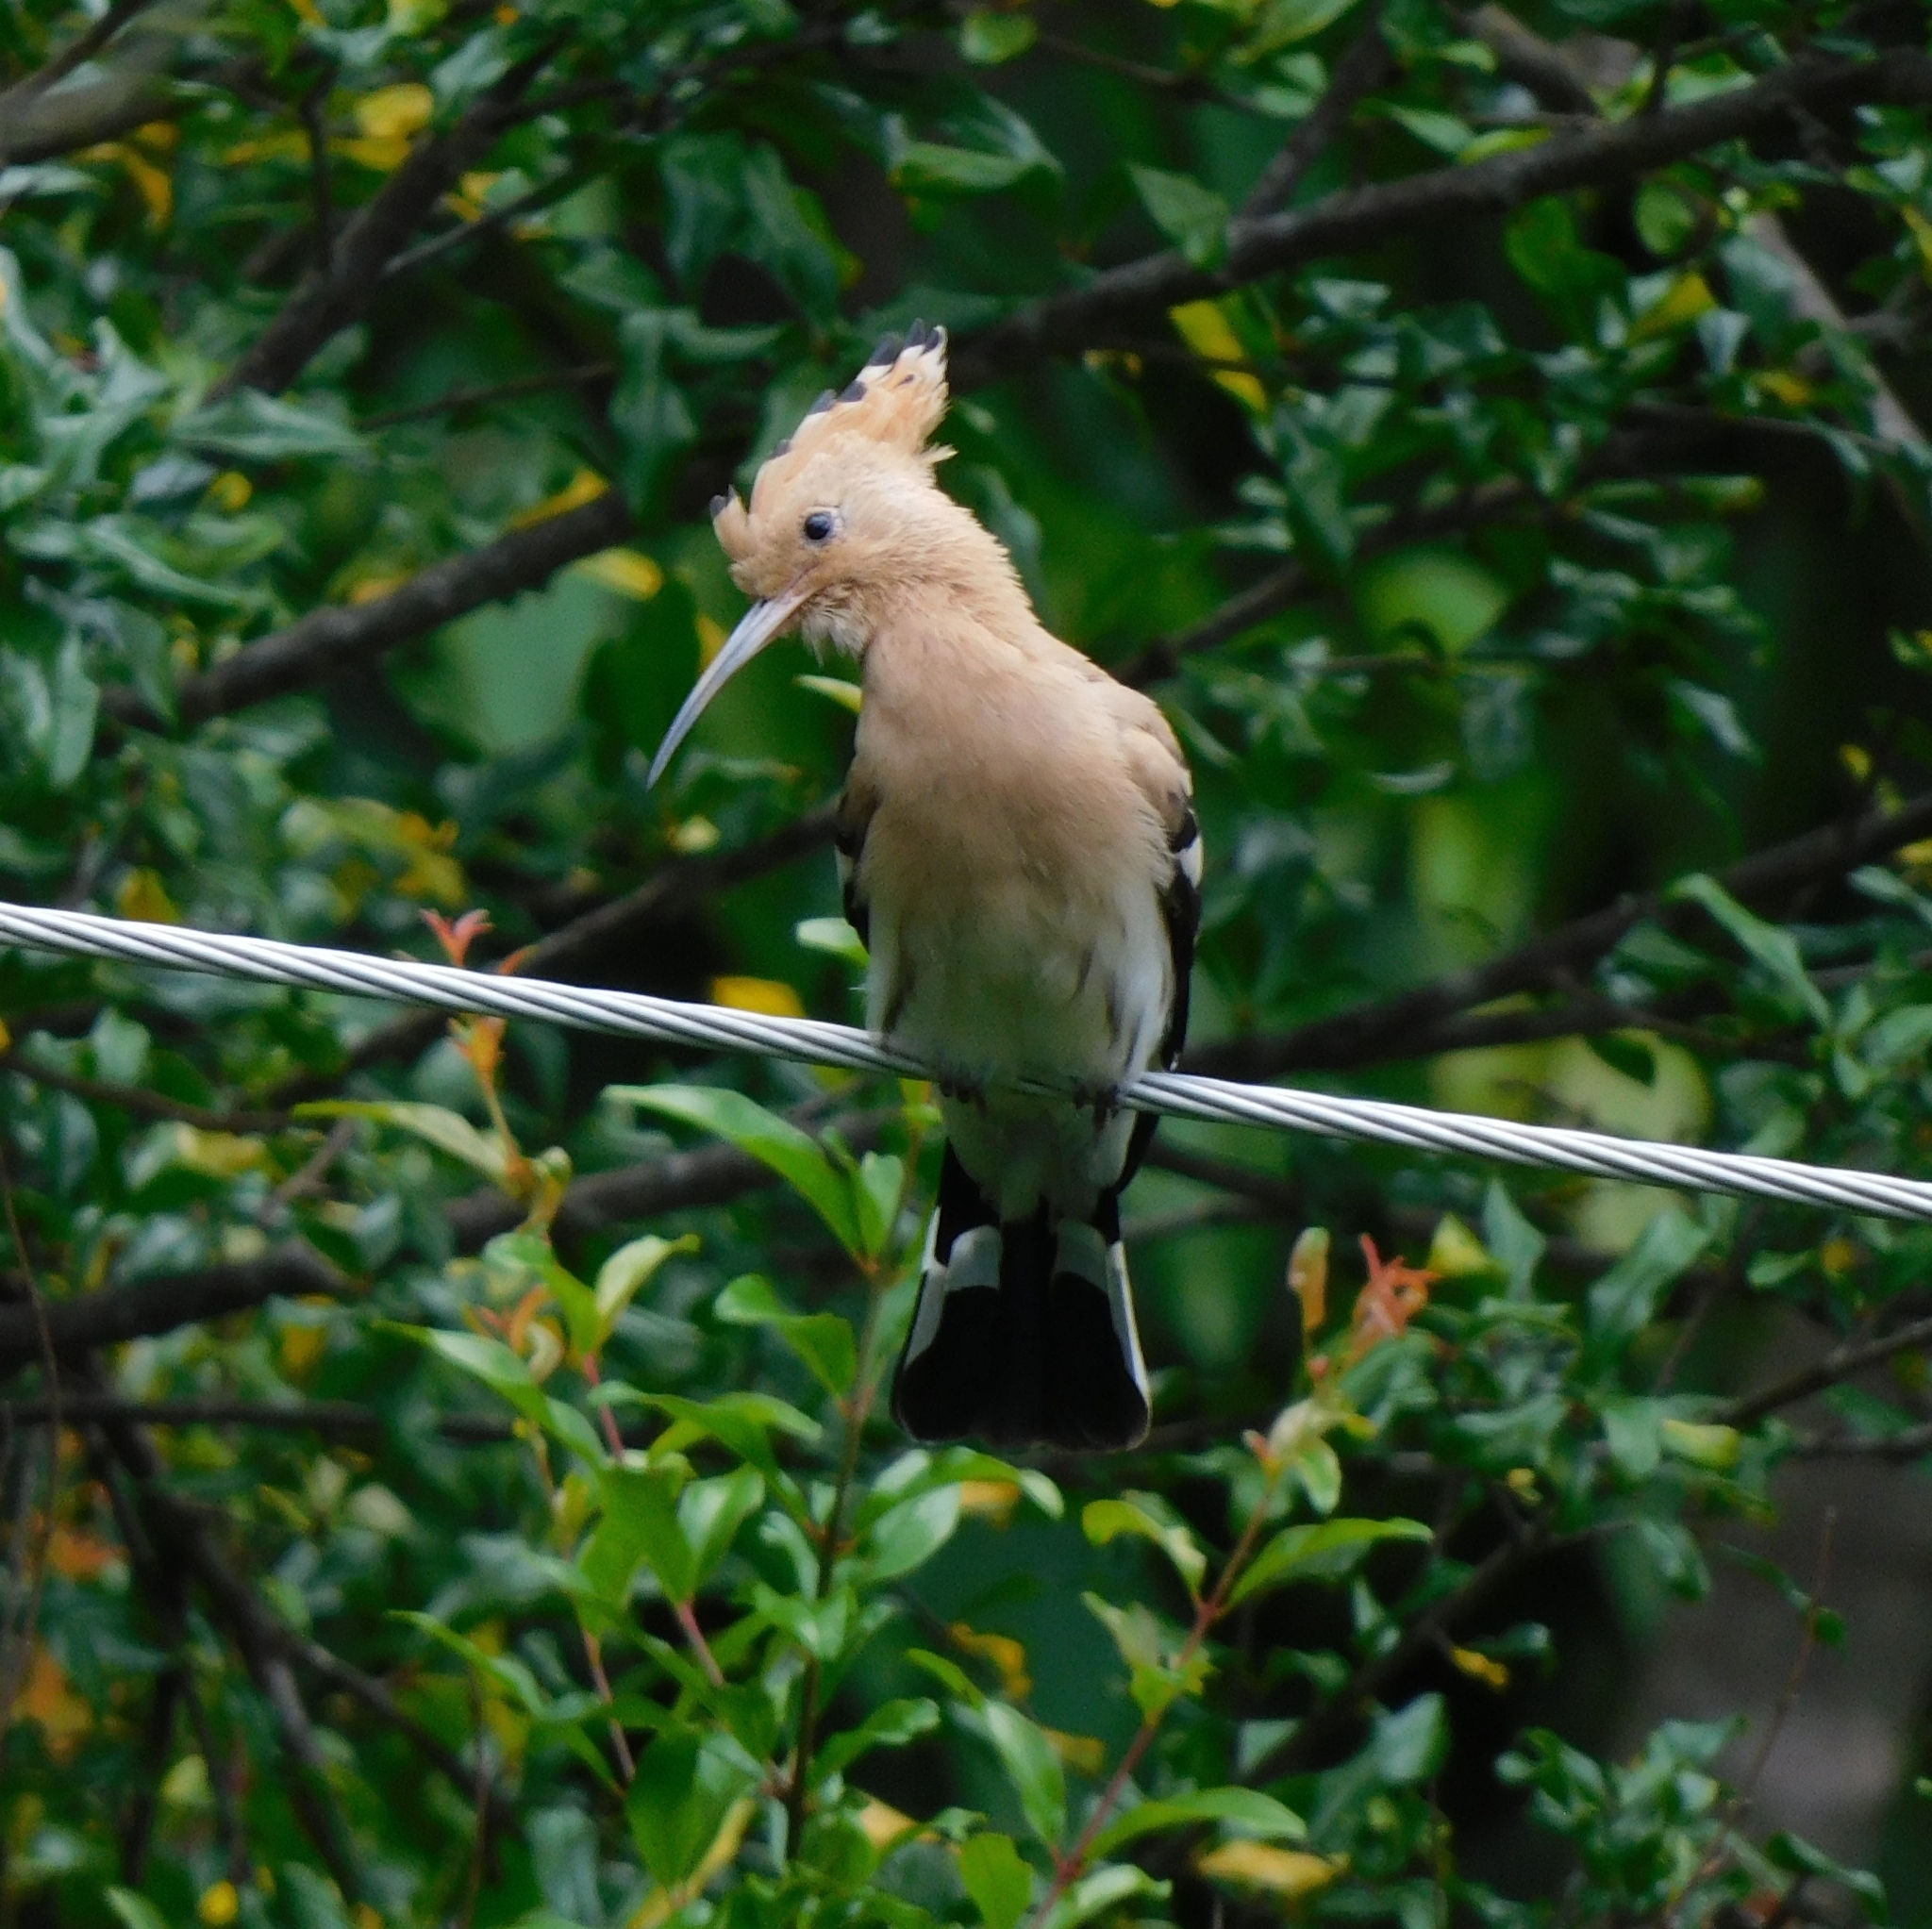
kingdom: Animalia
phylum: Chordata
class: Aves
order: Bucerotiformes
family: Upupidae
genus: Upupa
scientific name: Upupa epops
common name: Eurasian hoopoe
